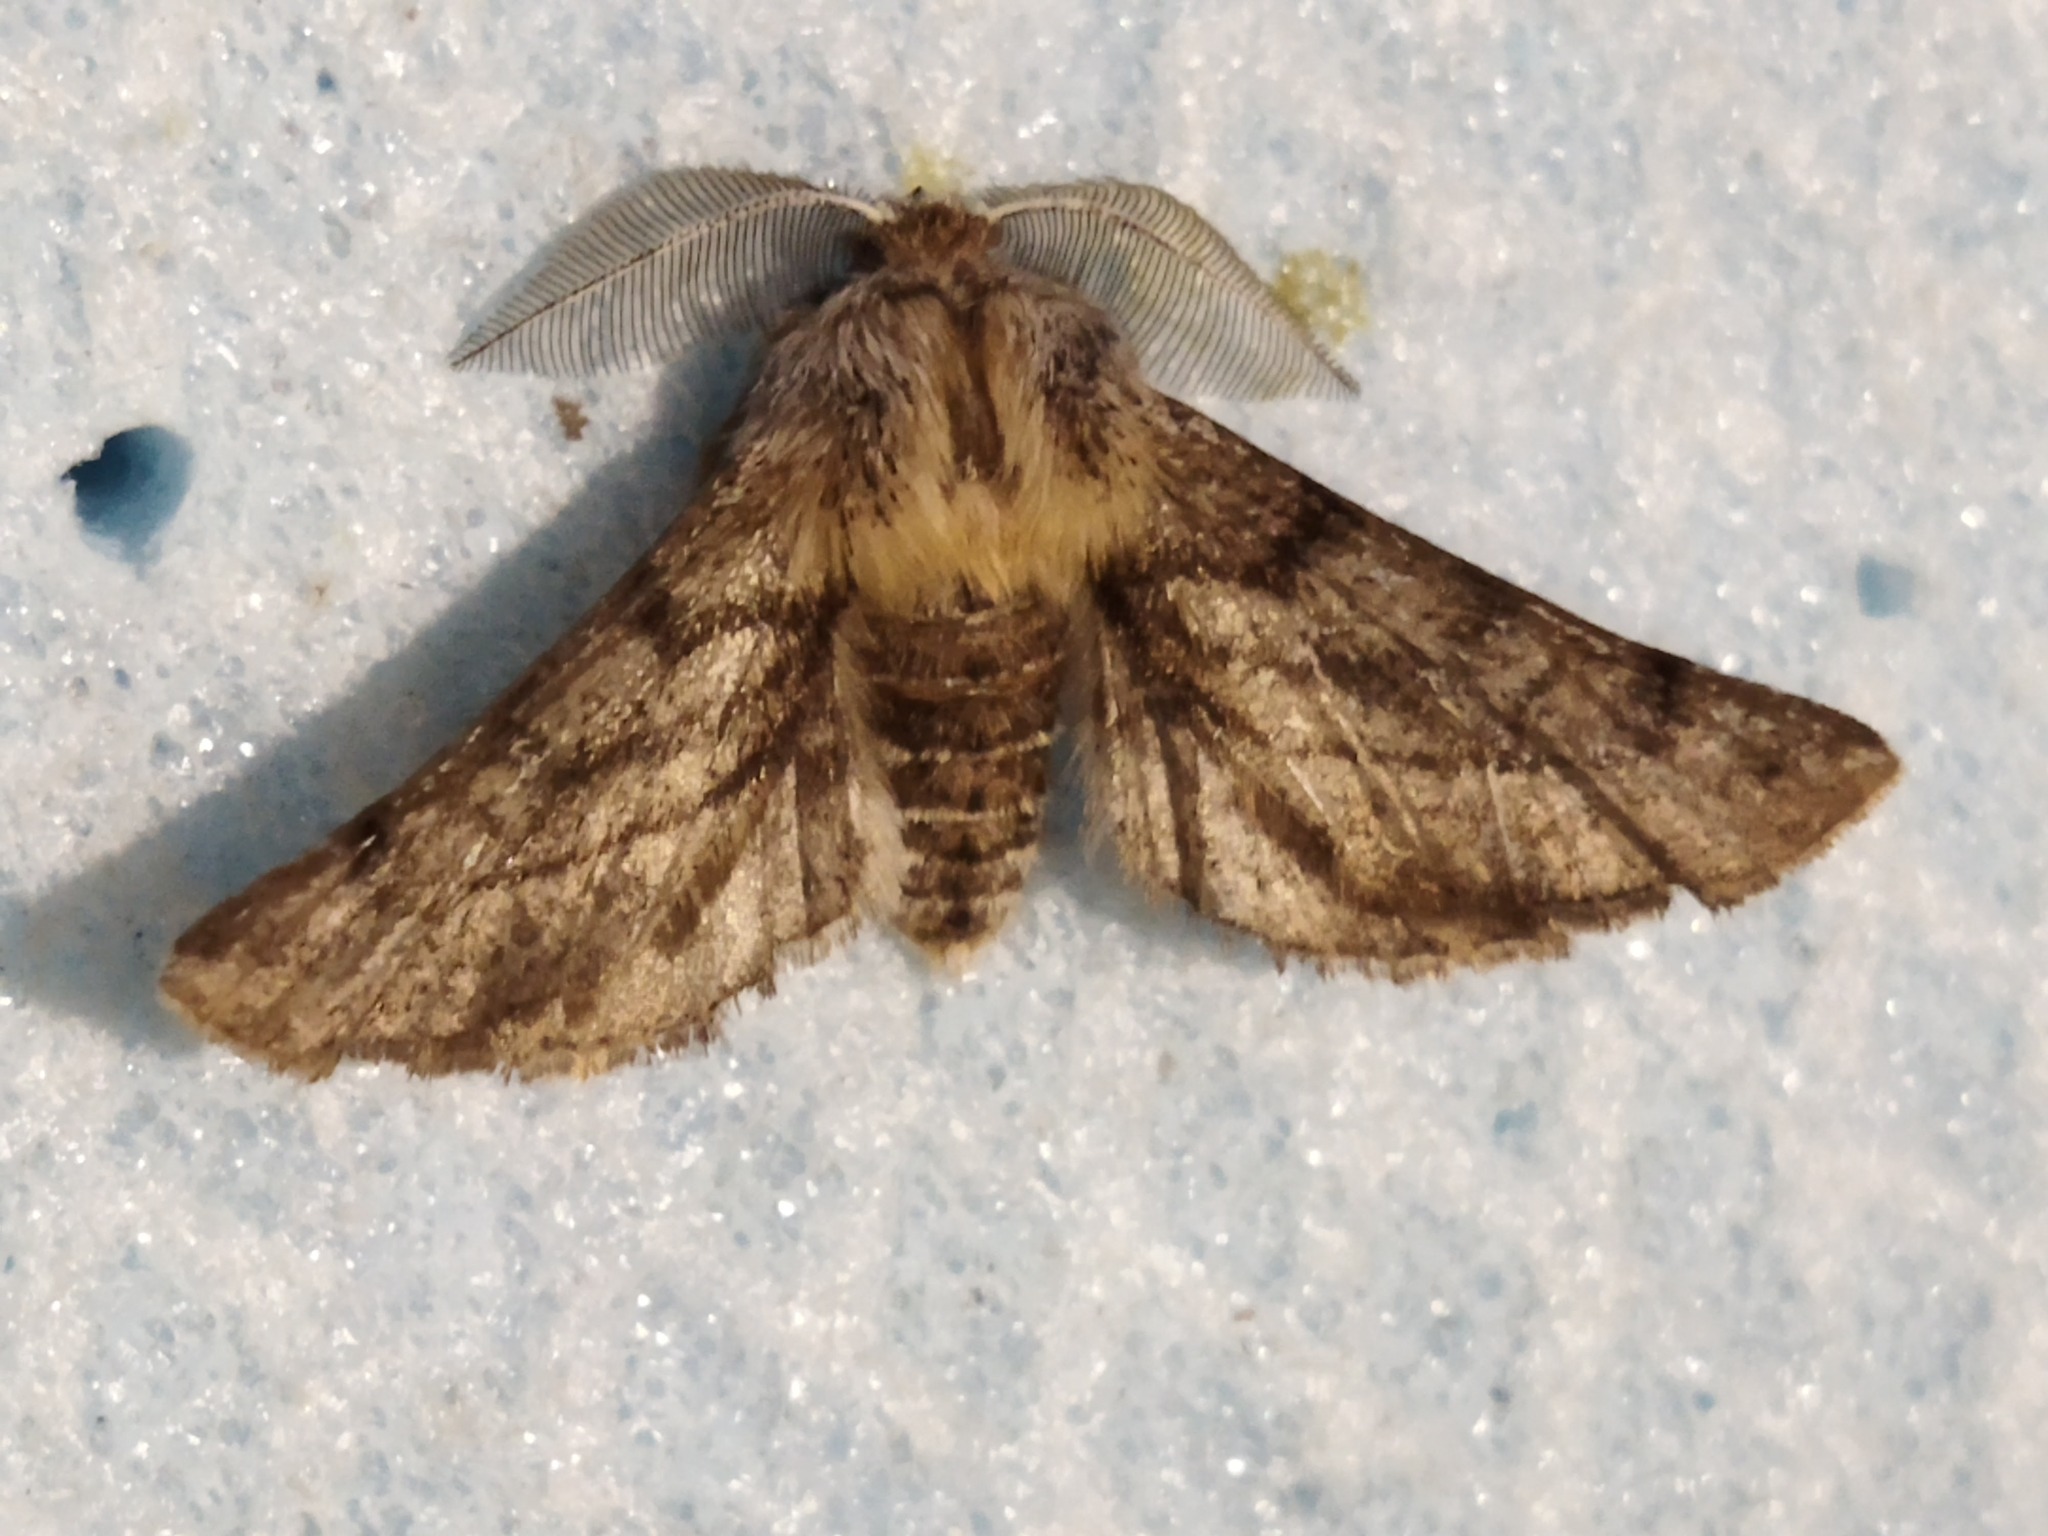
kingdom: Animalia
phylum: Arthropoda
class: Insecta
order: Lepidoptera
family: Geometridae
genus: Apochima
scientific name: Apochima flabellaria
